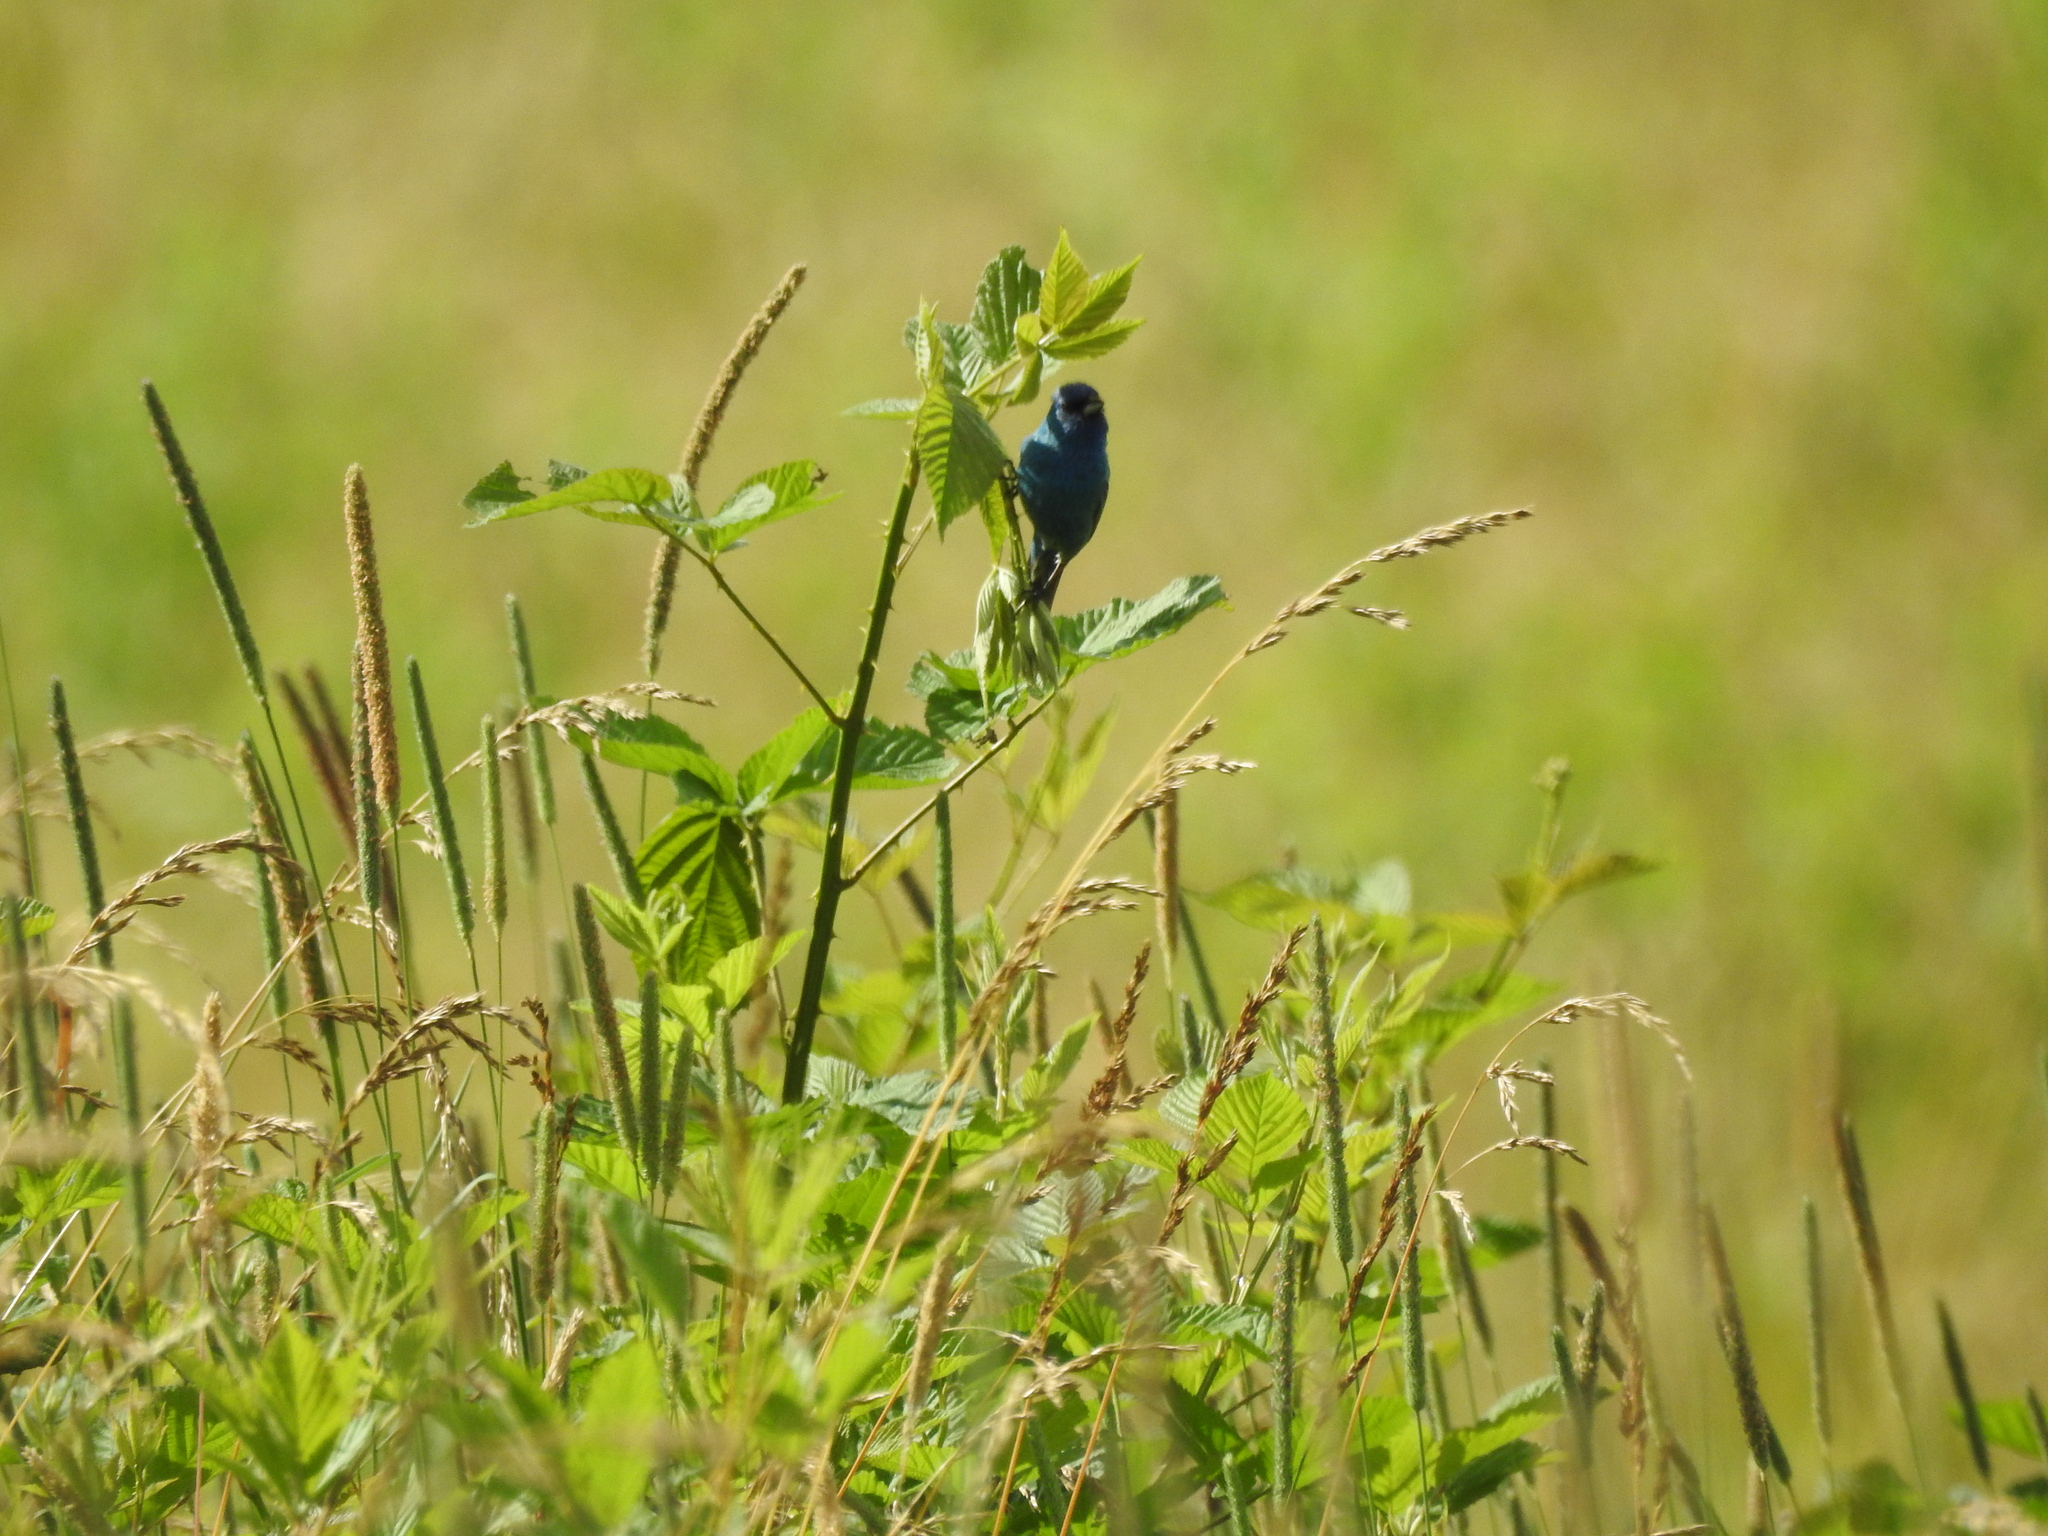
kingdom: Animalia
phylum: Chordata
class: Aves
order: Passeriformes
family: Cardinalidae
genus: Passerina
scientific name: Passerina cyanea
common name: Indigo bunting
